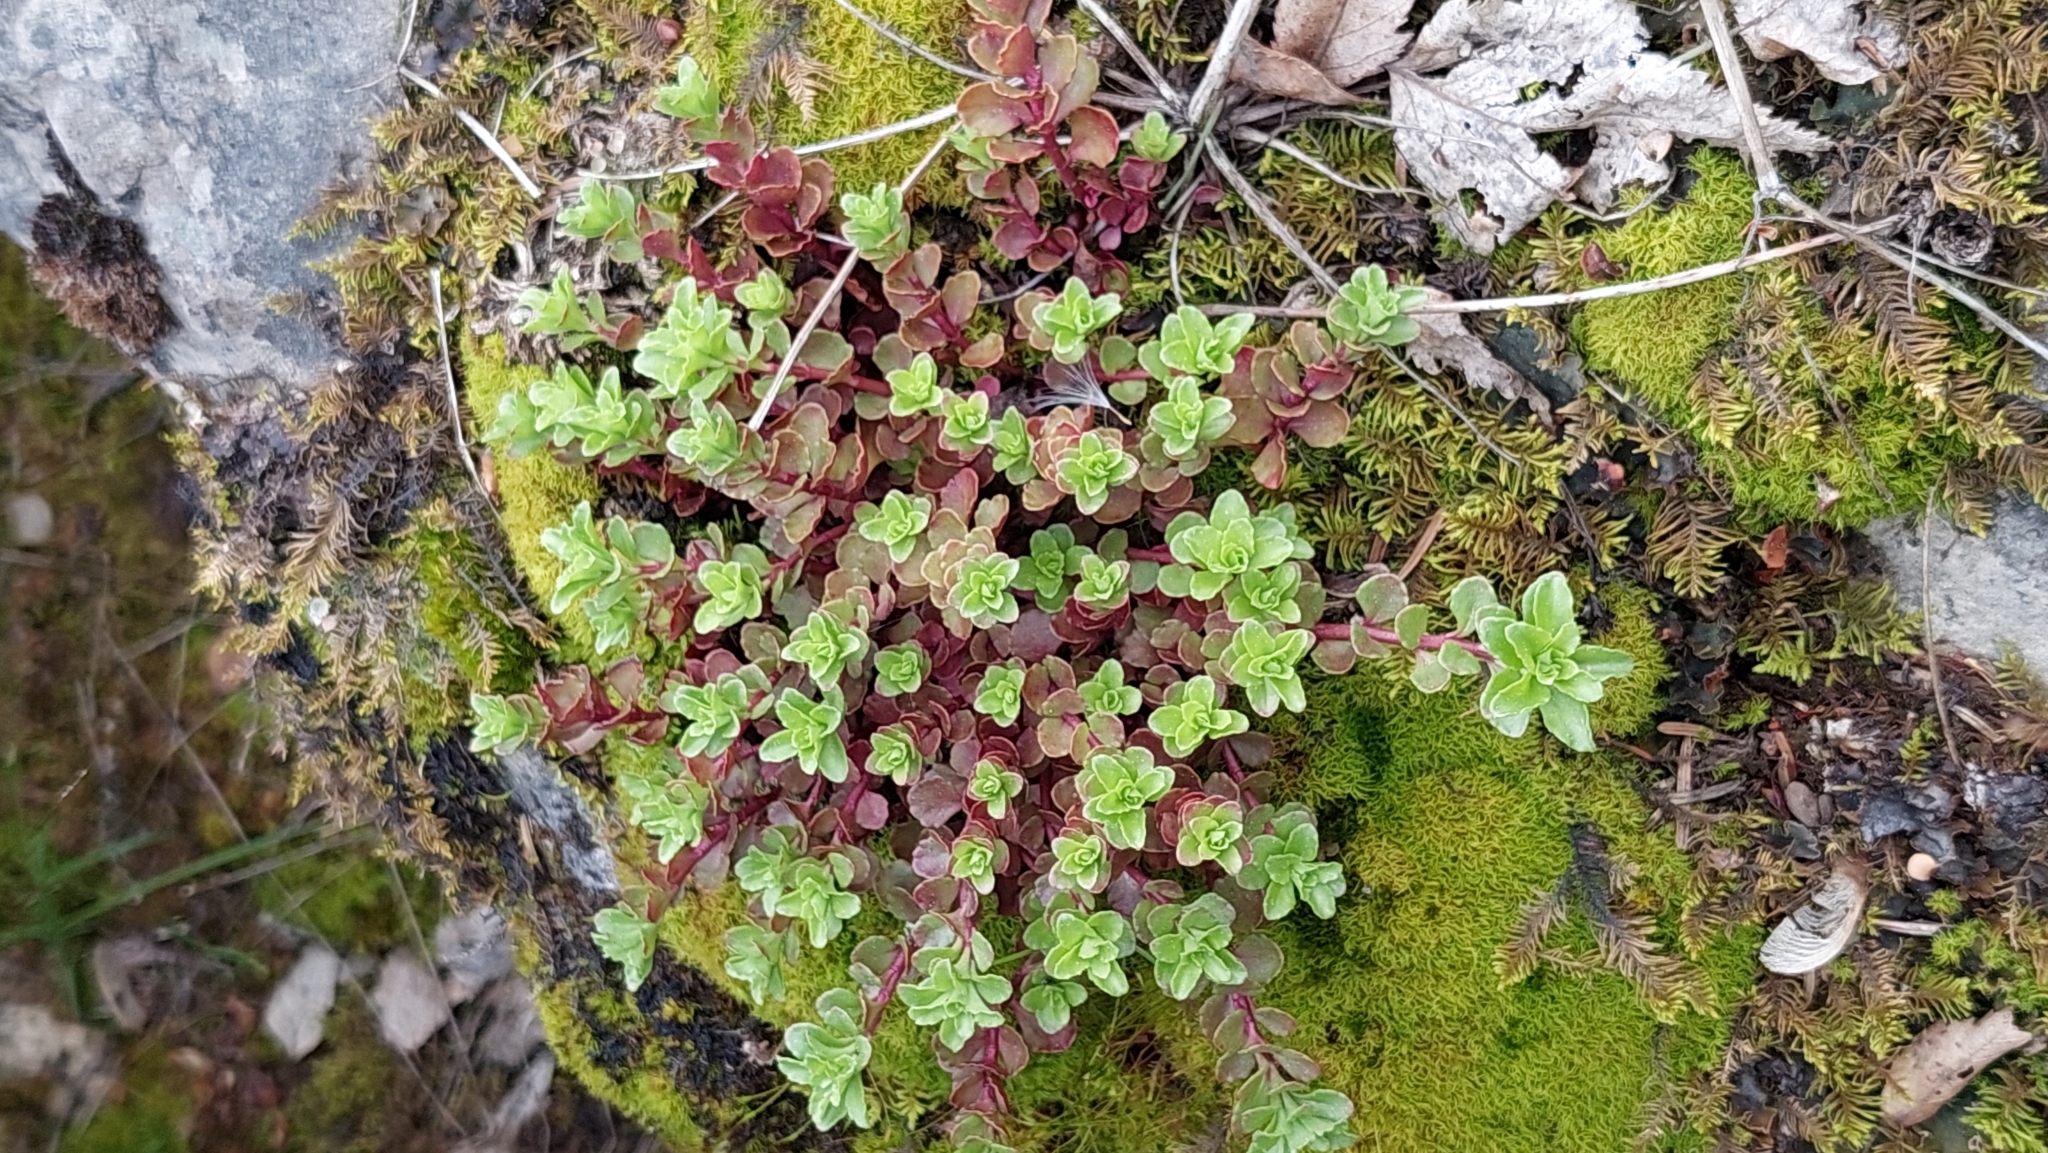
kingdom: Plantae
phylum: Tracheophyta
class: Magnoliopsida
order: Saxifragales
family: Crassulaceae
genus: Phedimus
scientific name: Phedimus stolonifer
